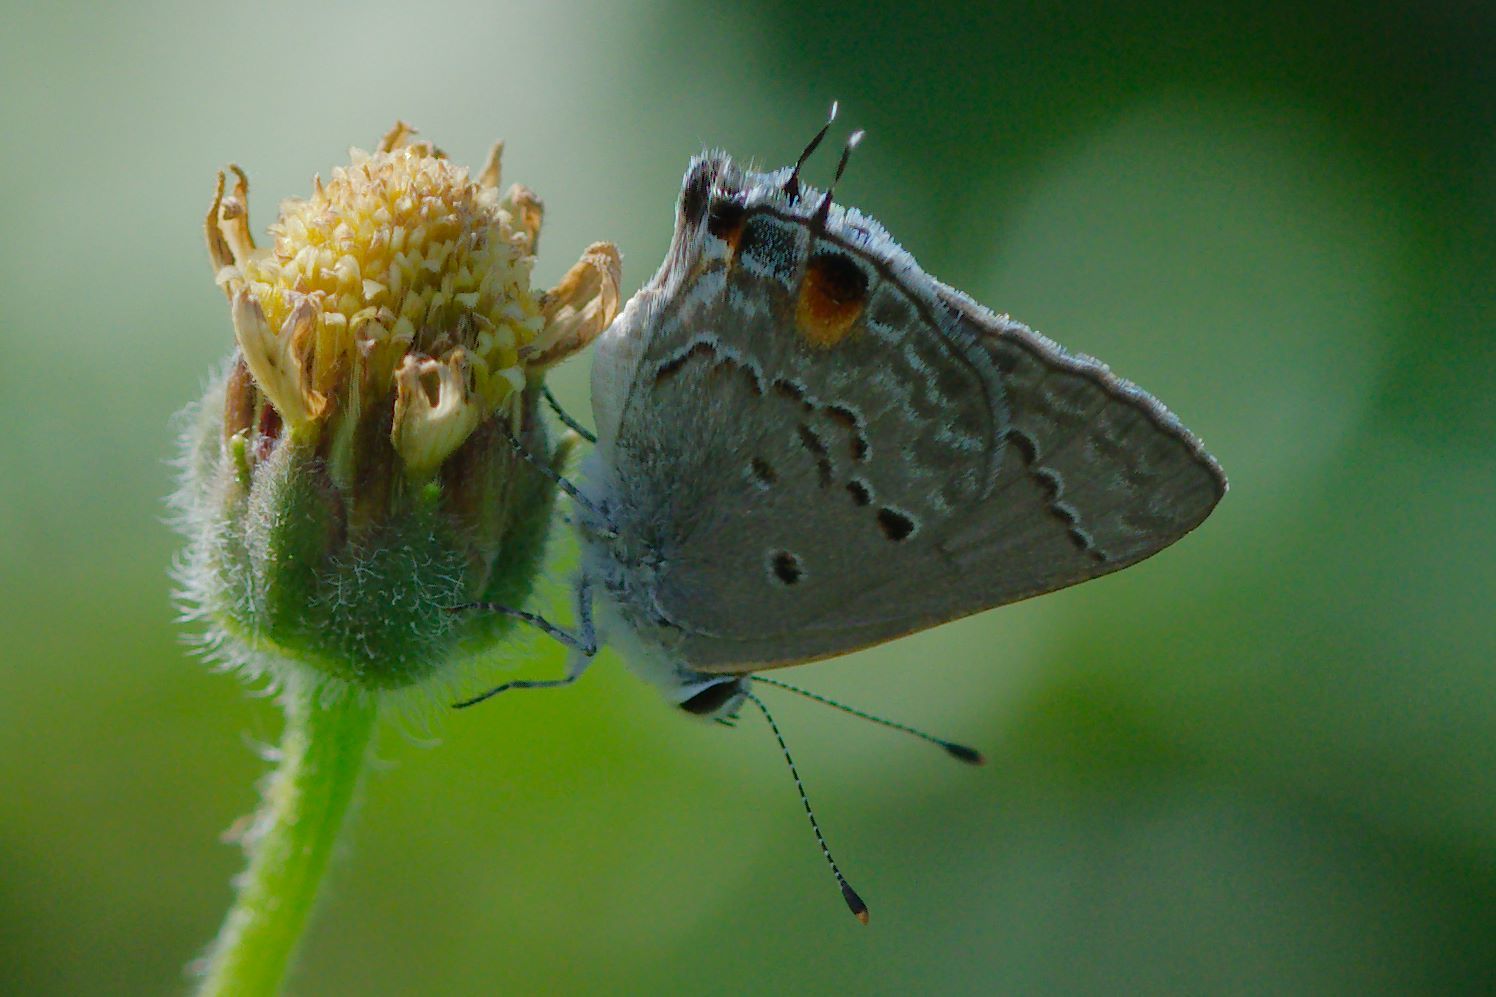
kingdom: Animalia
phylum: Arthropoda
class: Insecta
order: Lepidoptera
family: Lycaenidae
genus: Callicista
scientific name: Callicista columella
